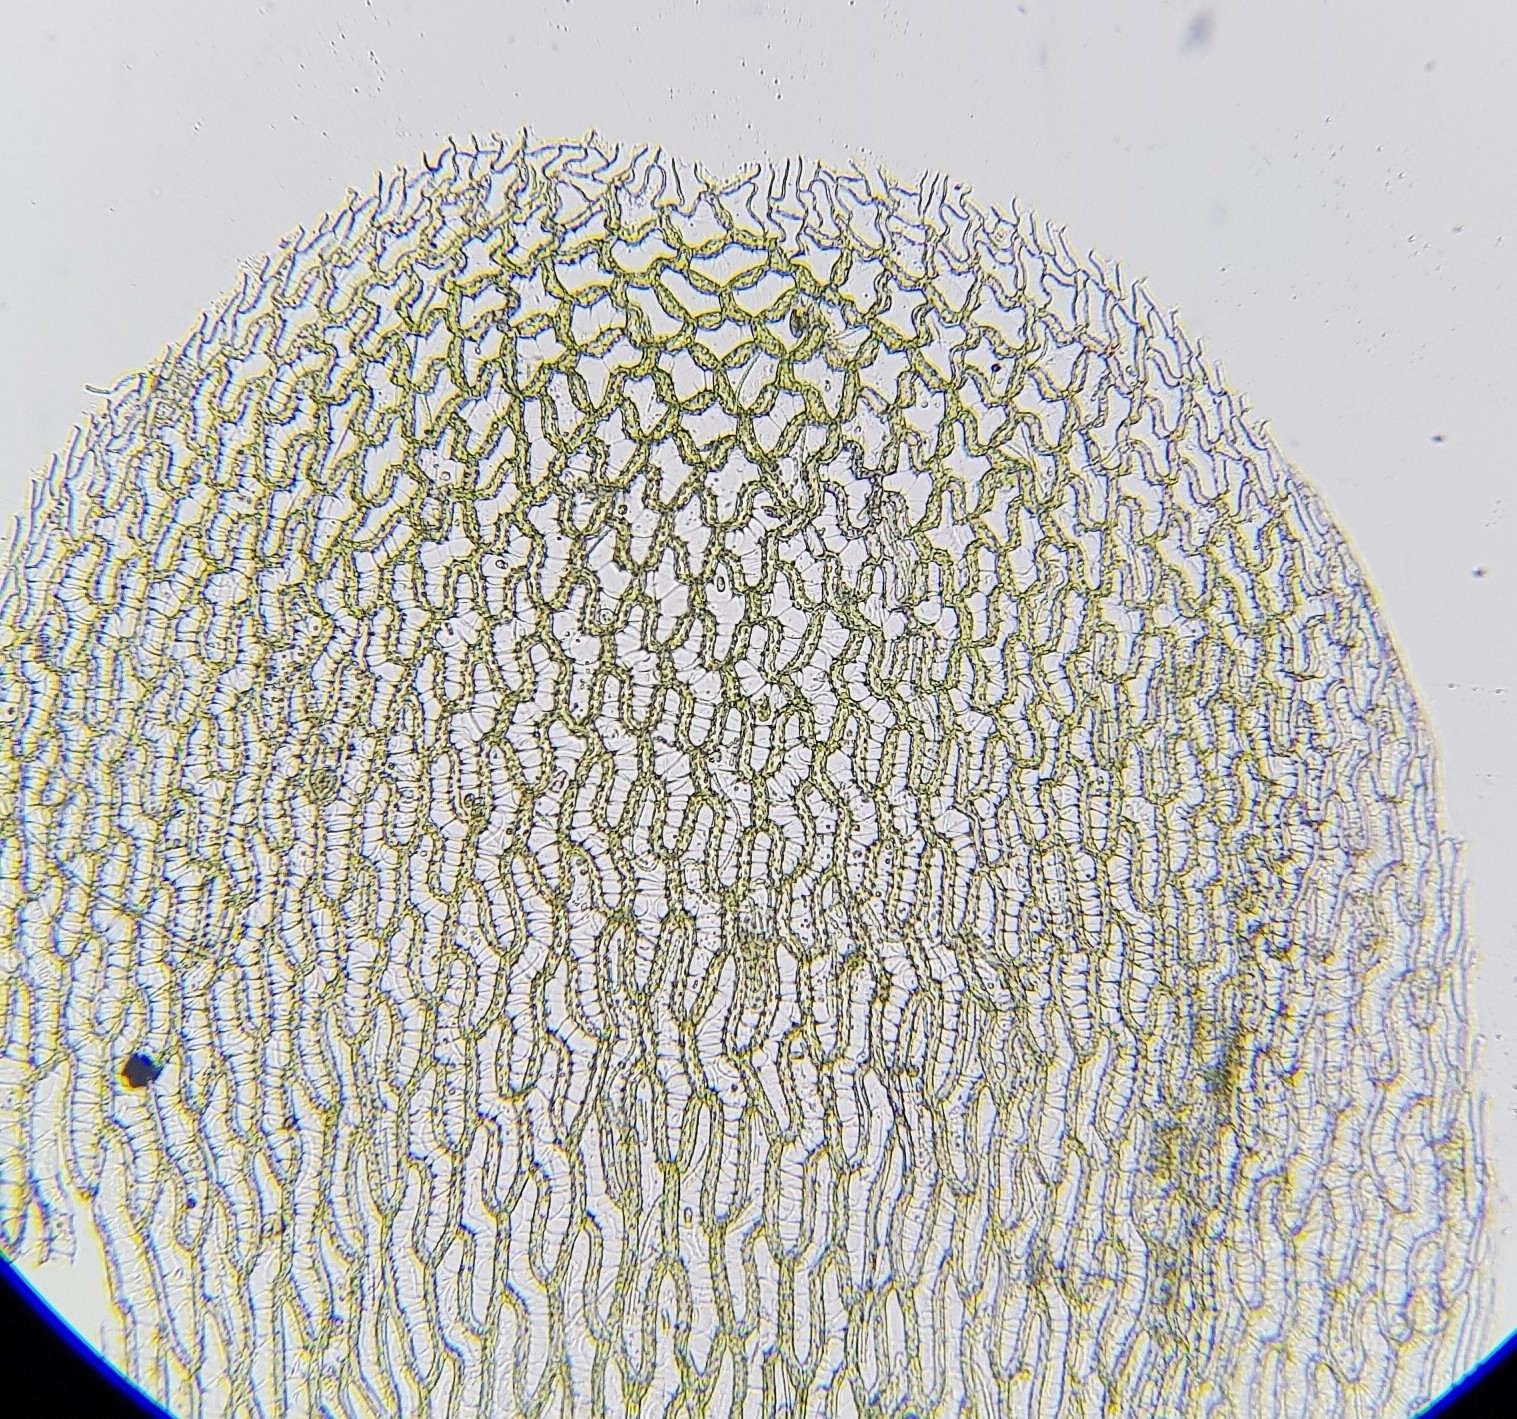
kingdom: Plantae
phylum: Bryophyta
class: Sphagnopsida
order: Sphagnales
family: Sphagnaceae
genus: Sphagnum
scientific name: Sphagnum palustre
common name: Blunt-leaved bog-moss
